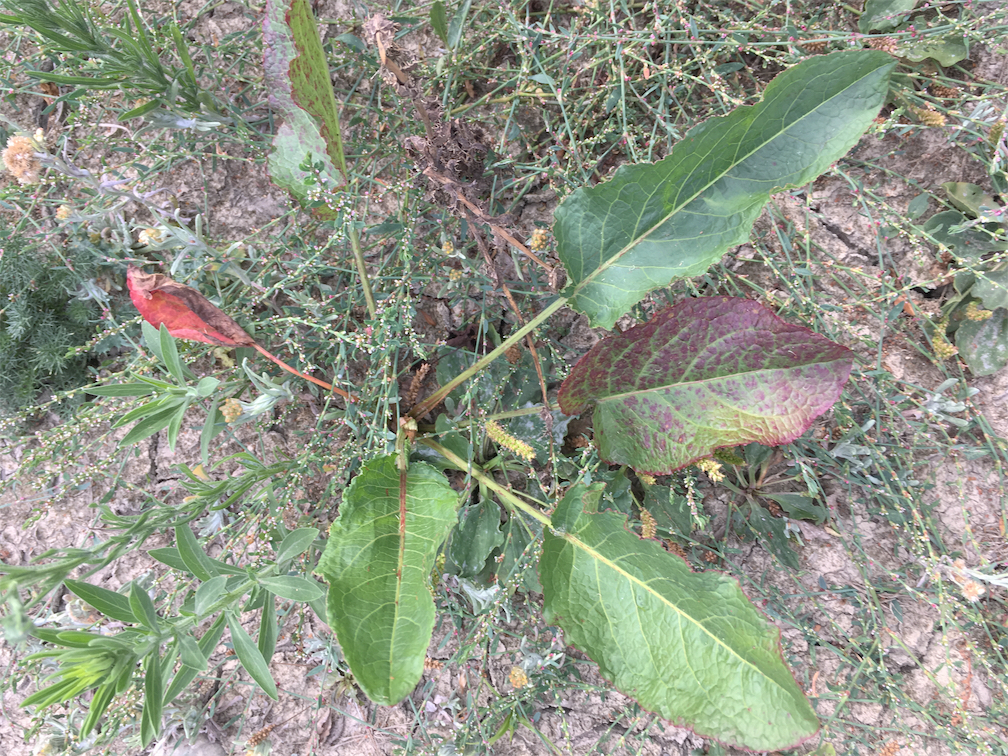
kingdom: Plantae
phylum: Tracheophyta
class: Magnoliopsida
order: Caryophyllales
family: Polygonaceae
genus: Rumex
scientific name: Rumex obtusifolius
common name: Bitter dock
